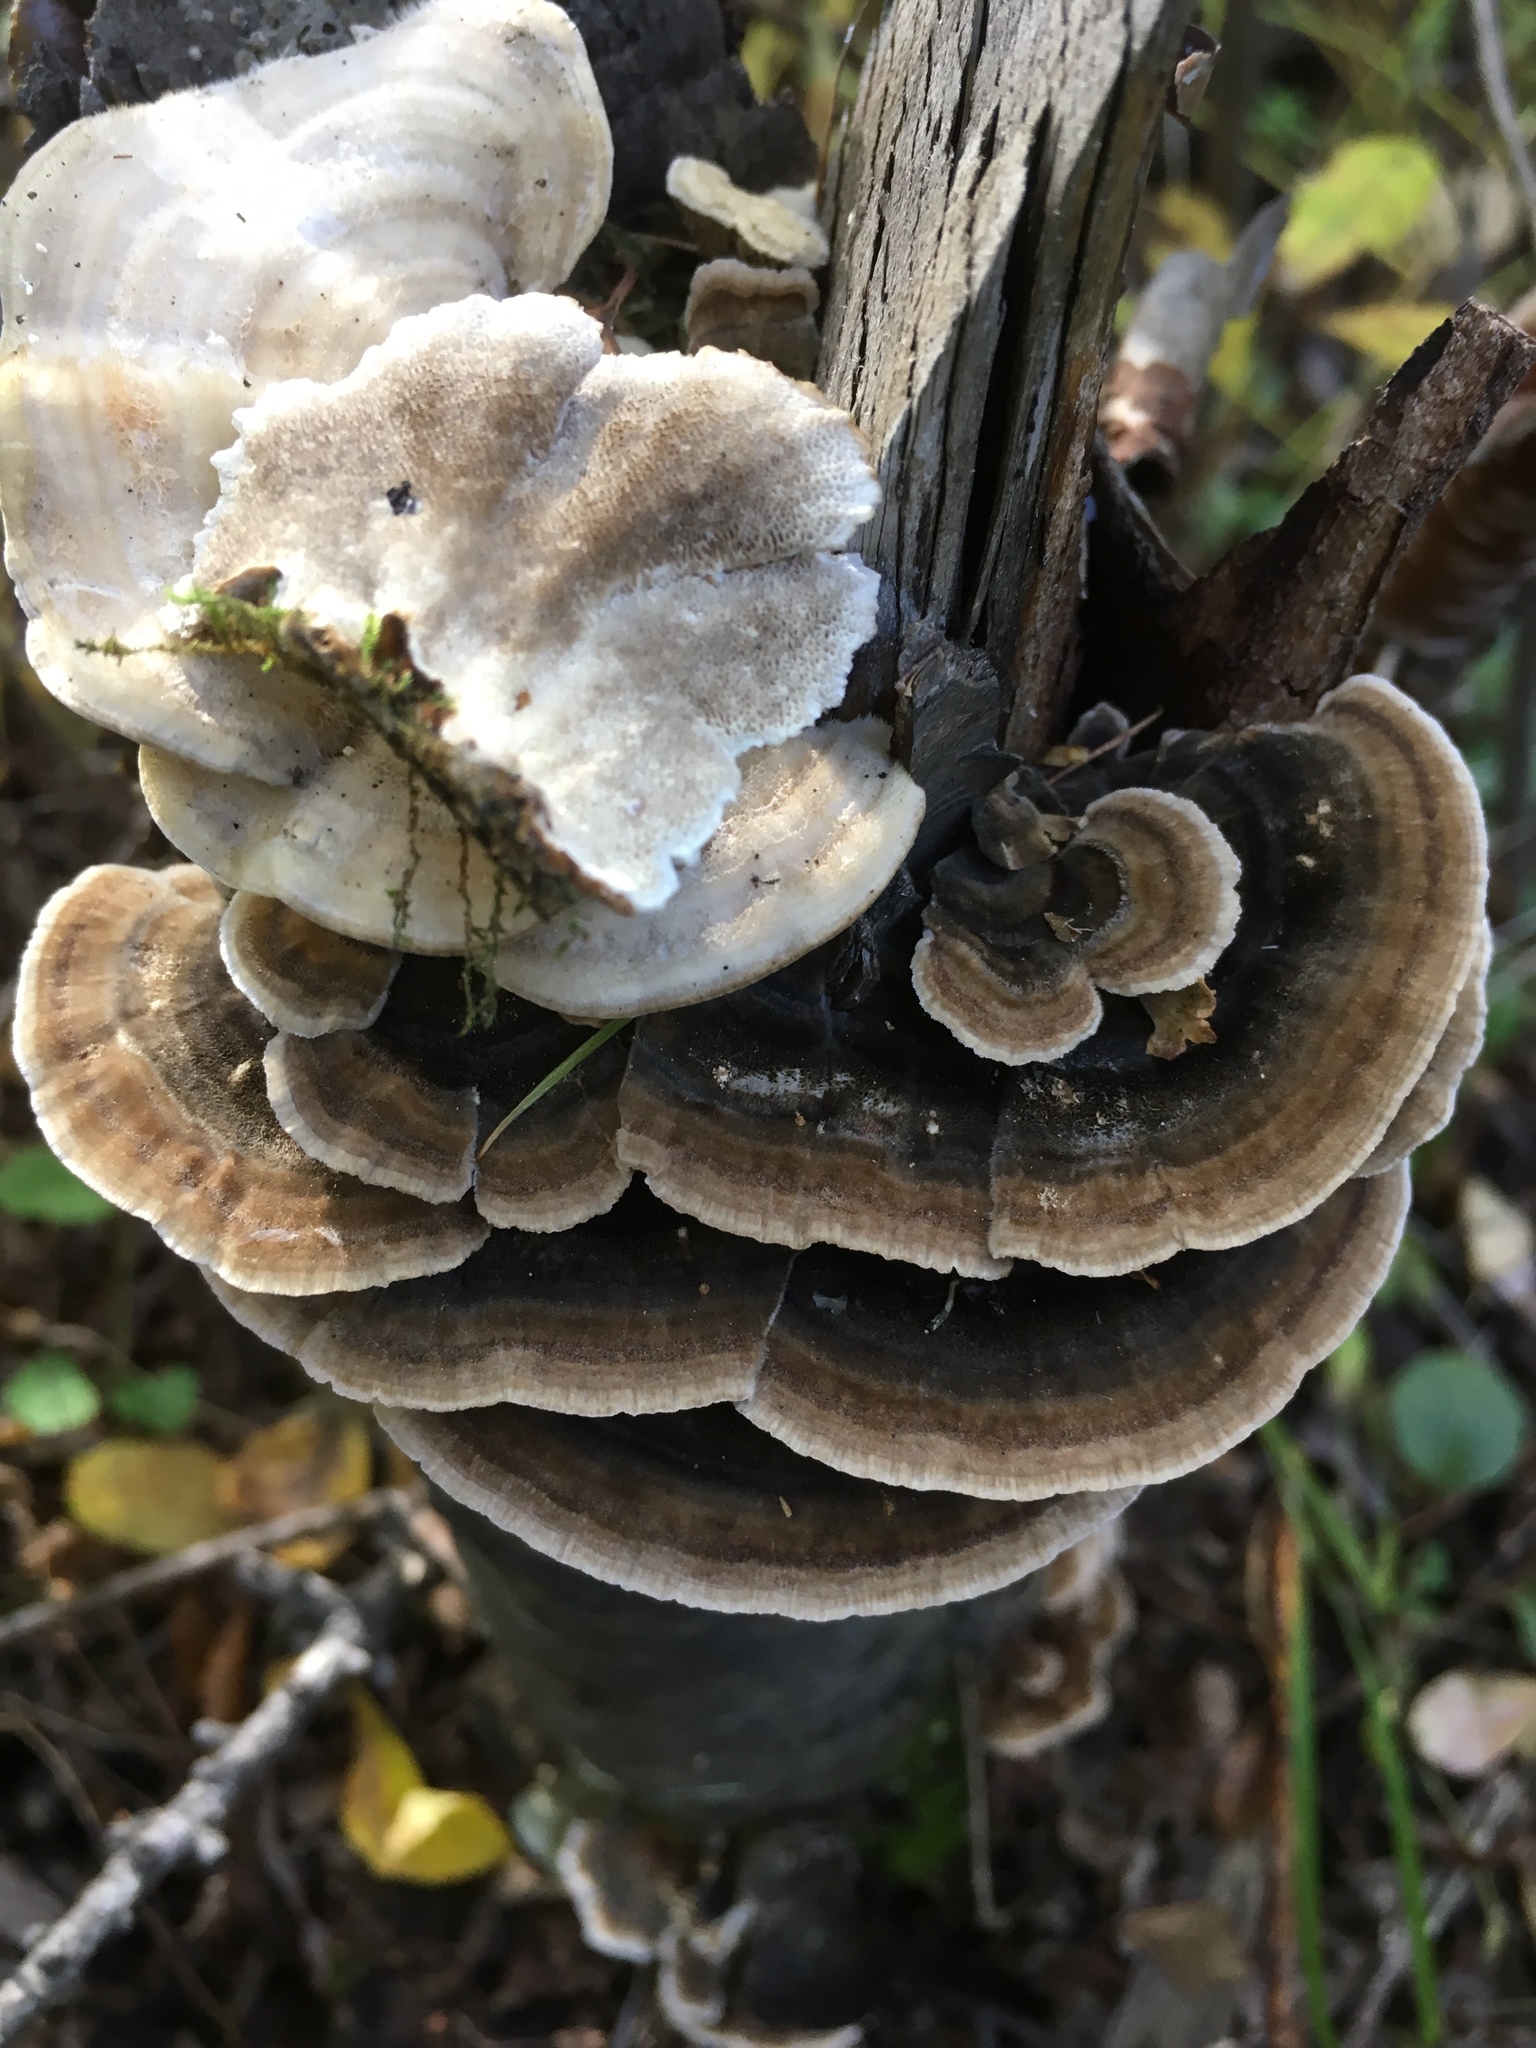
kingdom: Fungi
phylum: Basidiomycota
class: Agaricomycetes
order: Polyporales
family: Polyporaceae
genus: Trametes
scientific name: Trametes versicolor
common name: Turkeytail
